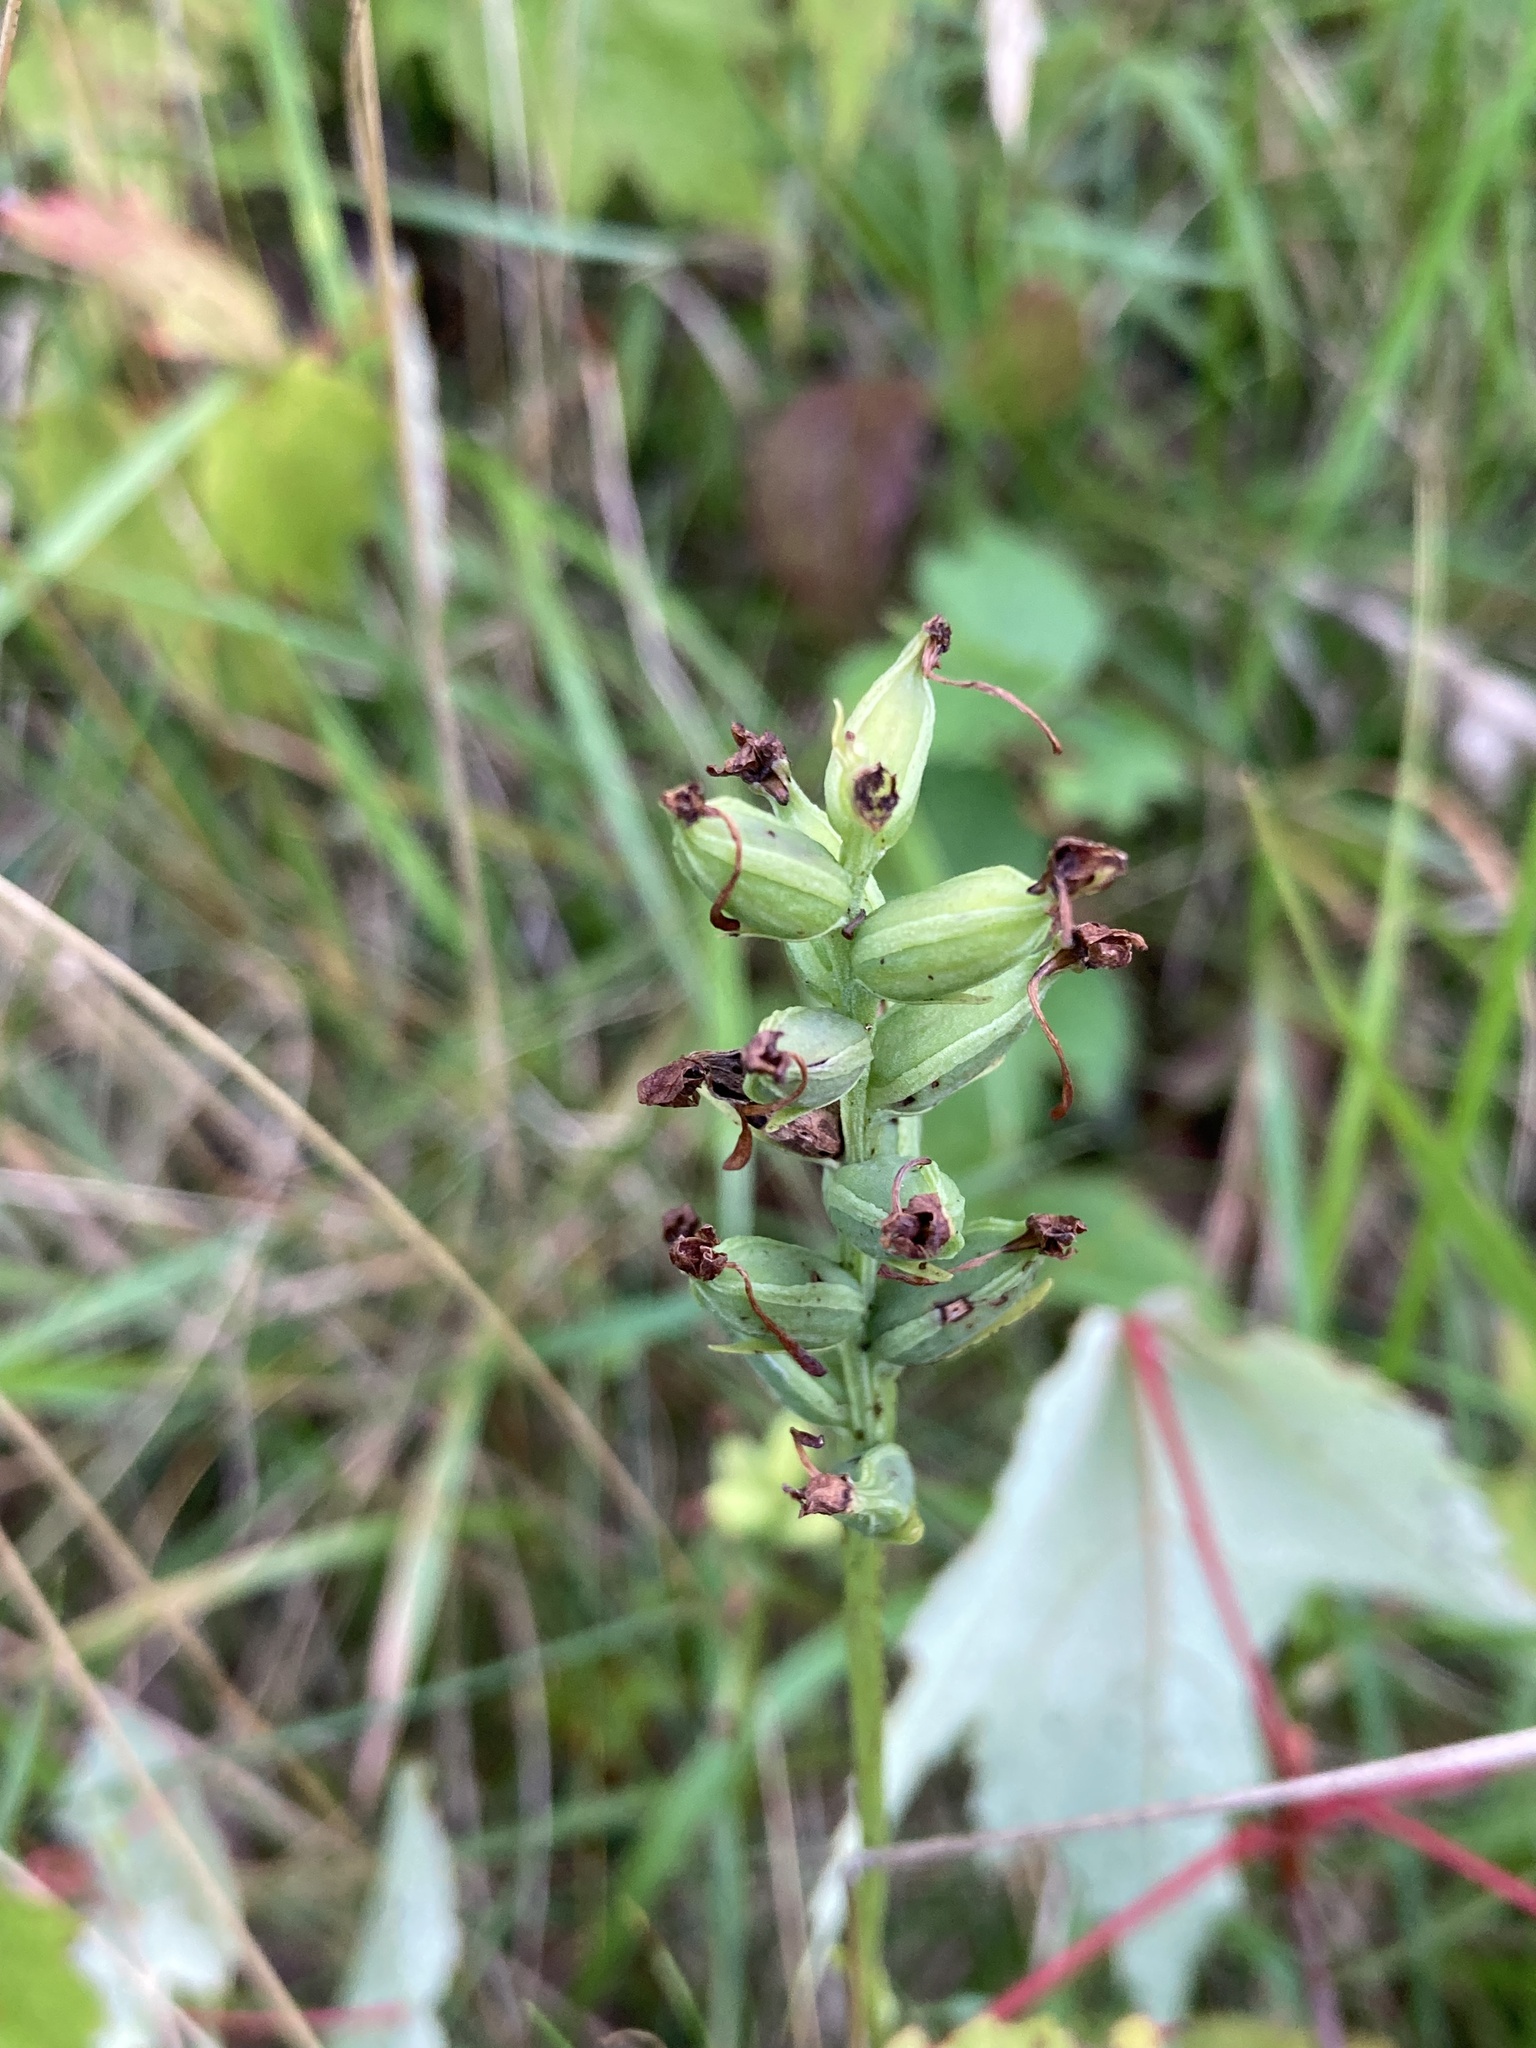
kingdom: Plantae
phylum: Tracheophyta
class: Liliopsida
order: Asparagales
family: Orchidaceae
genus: Platanthera
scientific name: Platanthera clavellata
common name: Club-spur orchid
